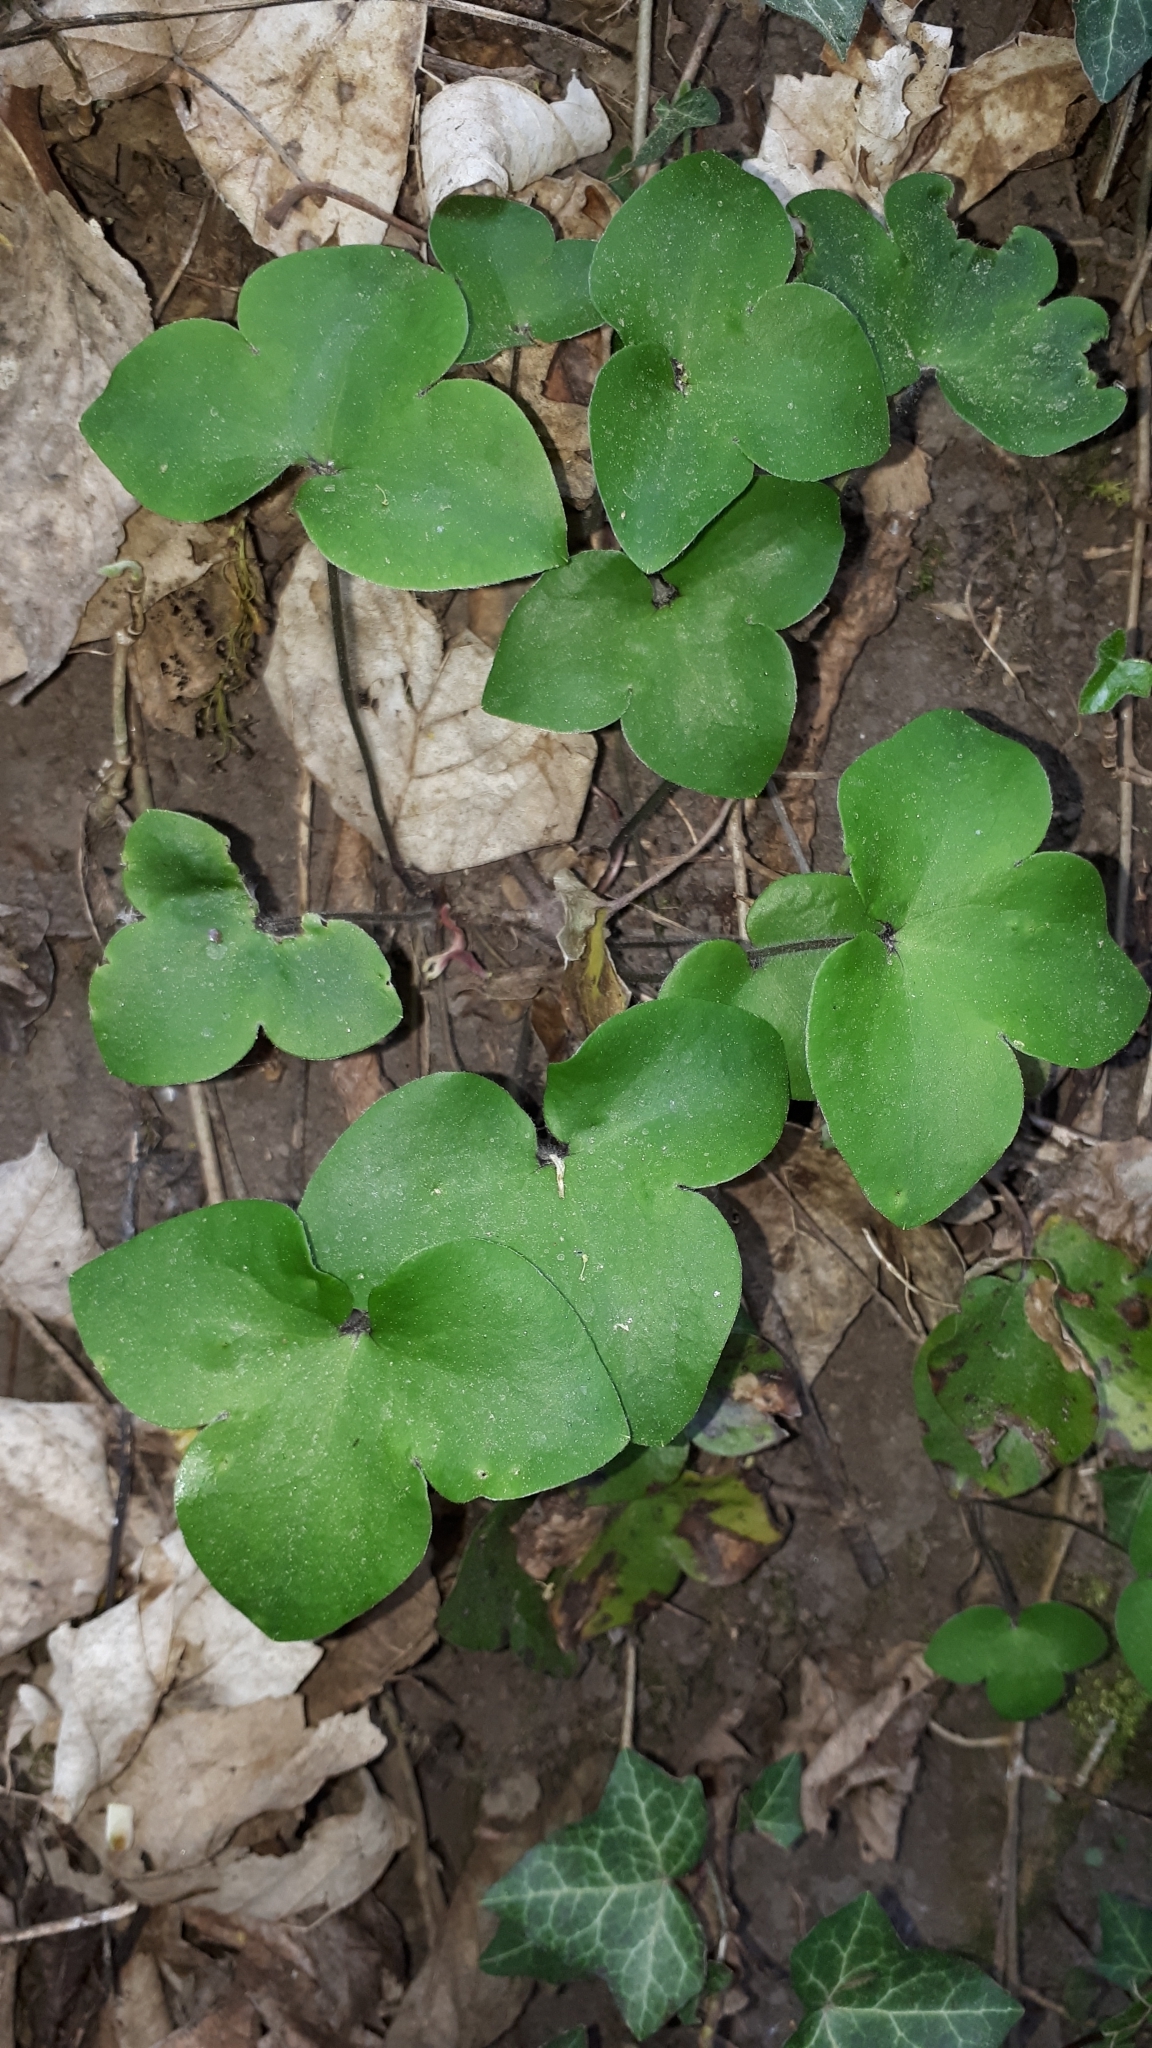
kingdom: Plantae
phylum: Tracheophyta
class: Magnoliopsida
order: Ranunculales
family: Ranunculaceae
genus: Hepatica
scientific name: Hepatica nobilis
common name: Liverleaf
